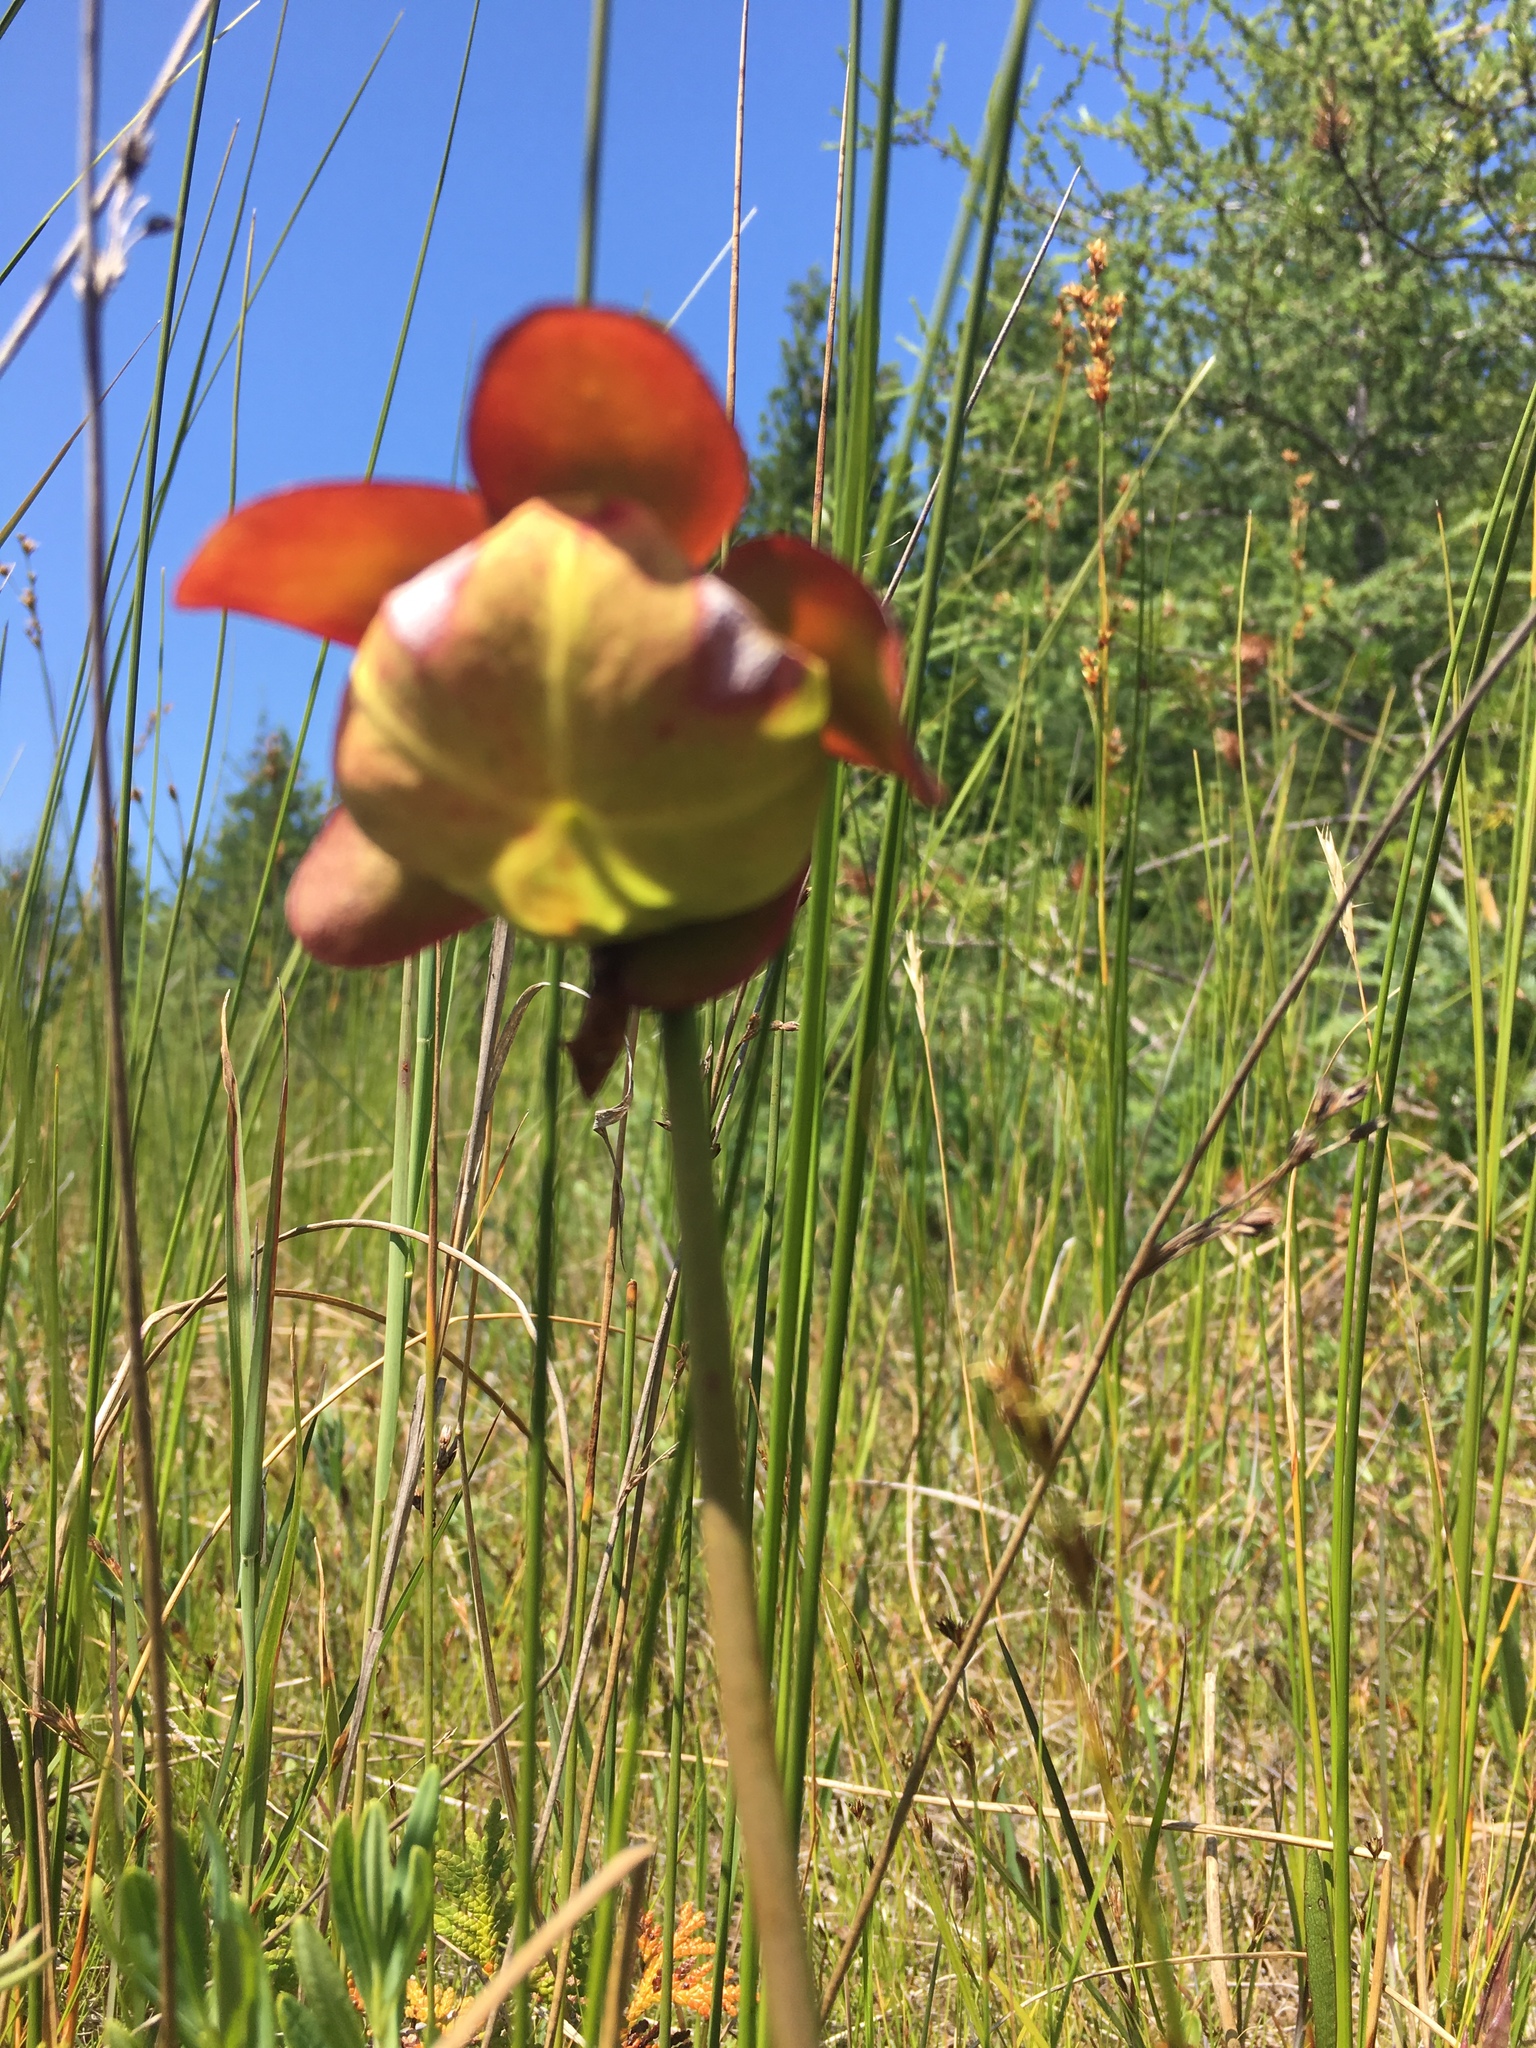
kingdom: Plantae
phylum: Tracheophyta
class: Magnoliopsida
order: Ericales
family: Sarraceniaceae
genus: Sarracenia
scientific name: Sarracenia purpurea
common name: Pitcherplant
